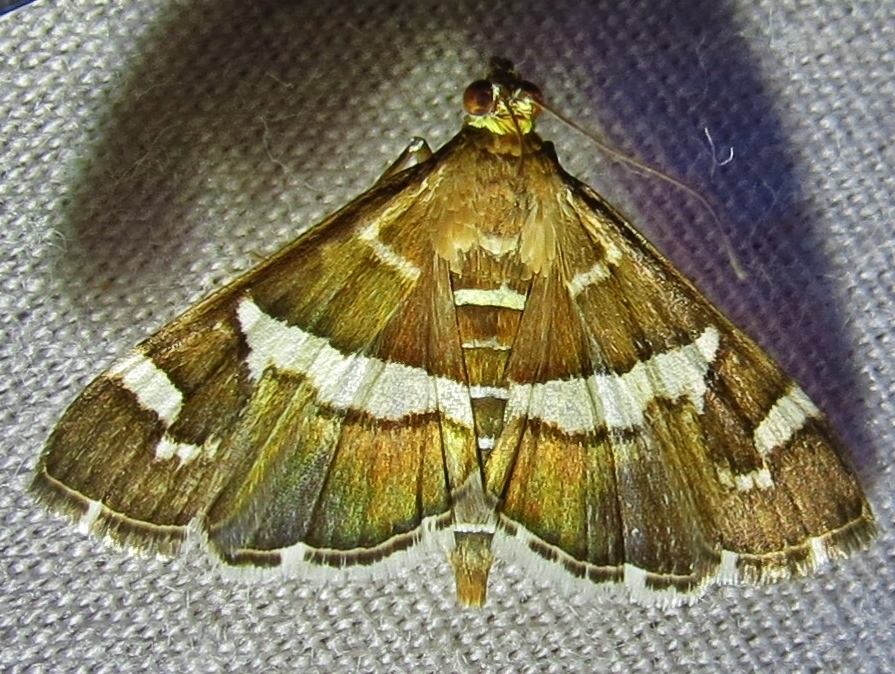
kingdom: Animalia
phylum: Arthropoda
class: Insecta
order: Lepidoptera
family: Crambidae
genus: Spoladea
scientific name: Spoladea recurvalis
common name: Beet webworm moth
